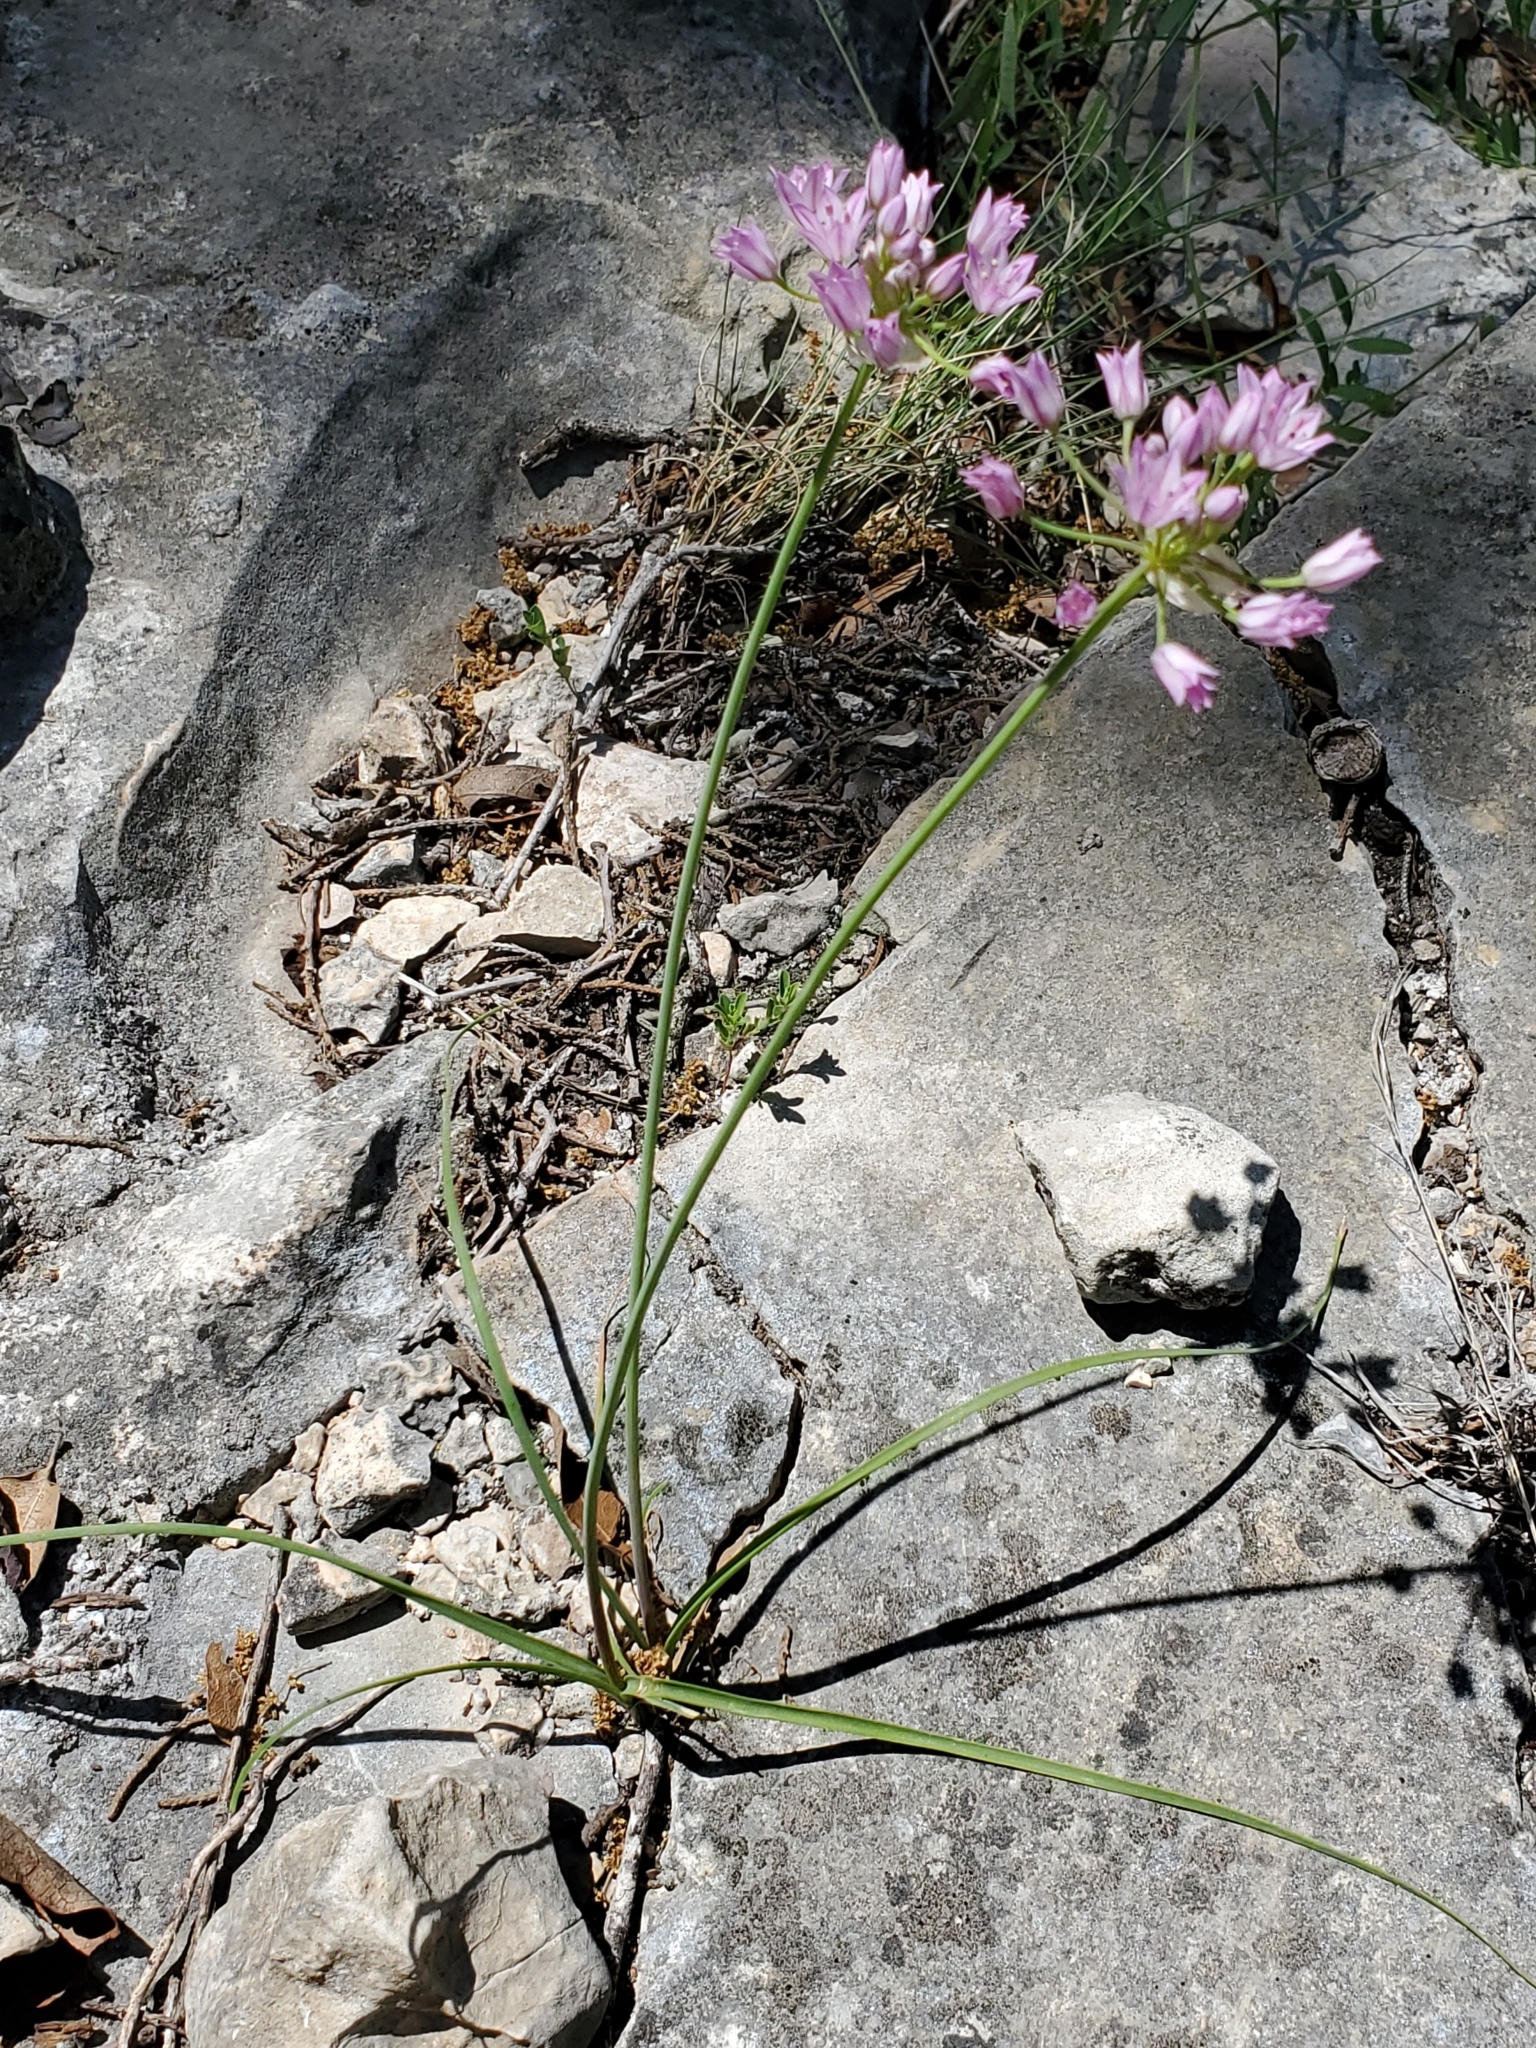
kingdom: Plantae
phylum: Tracheophyta
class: Liliopsida
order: Asparagales
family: Amaryllidaceae
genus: Allium
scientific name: Allium drummondii
